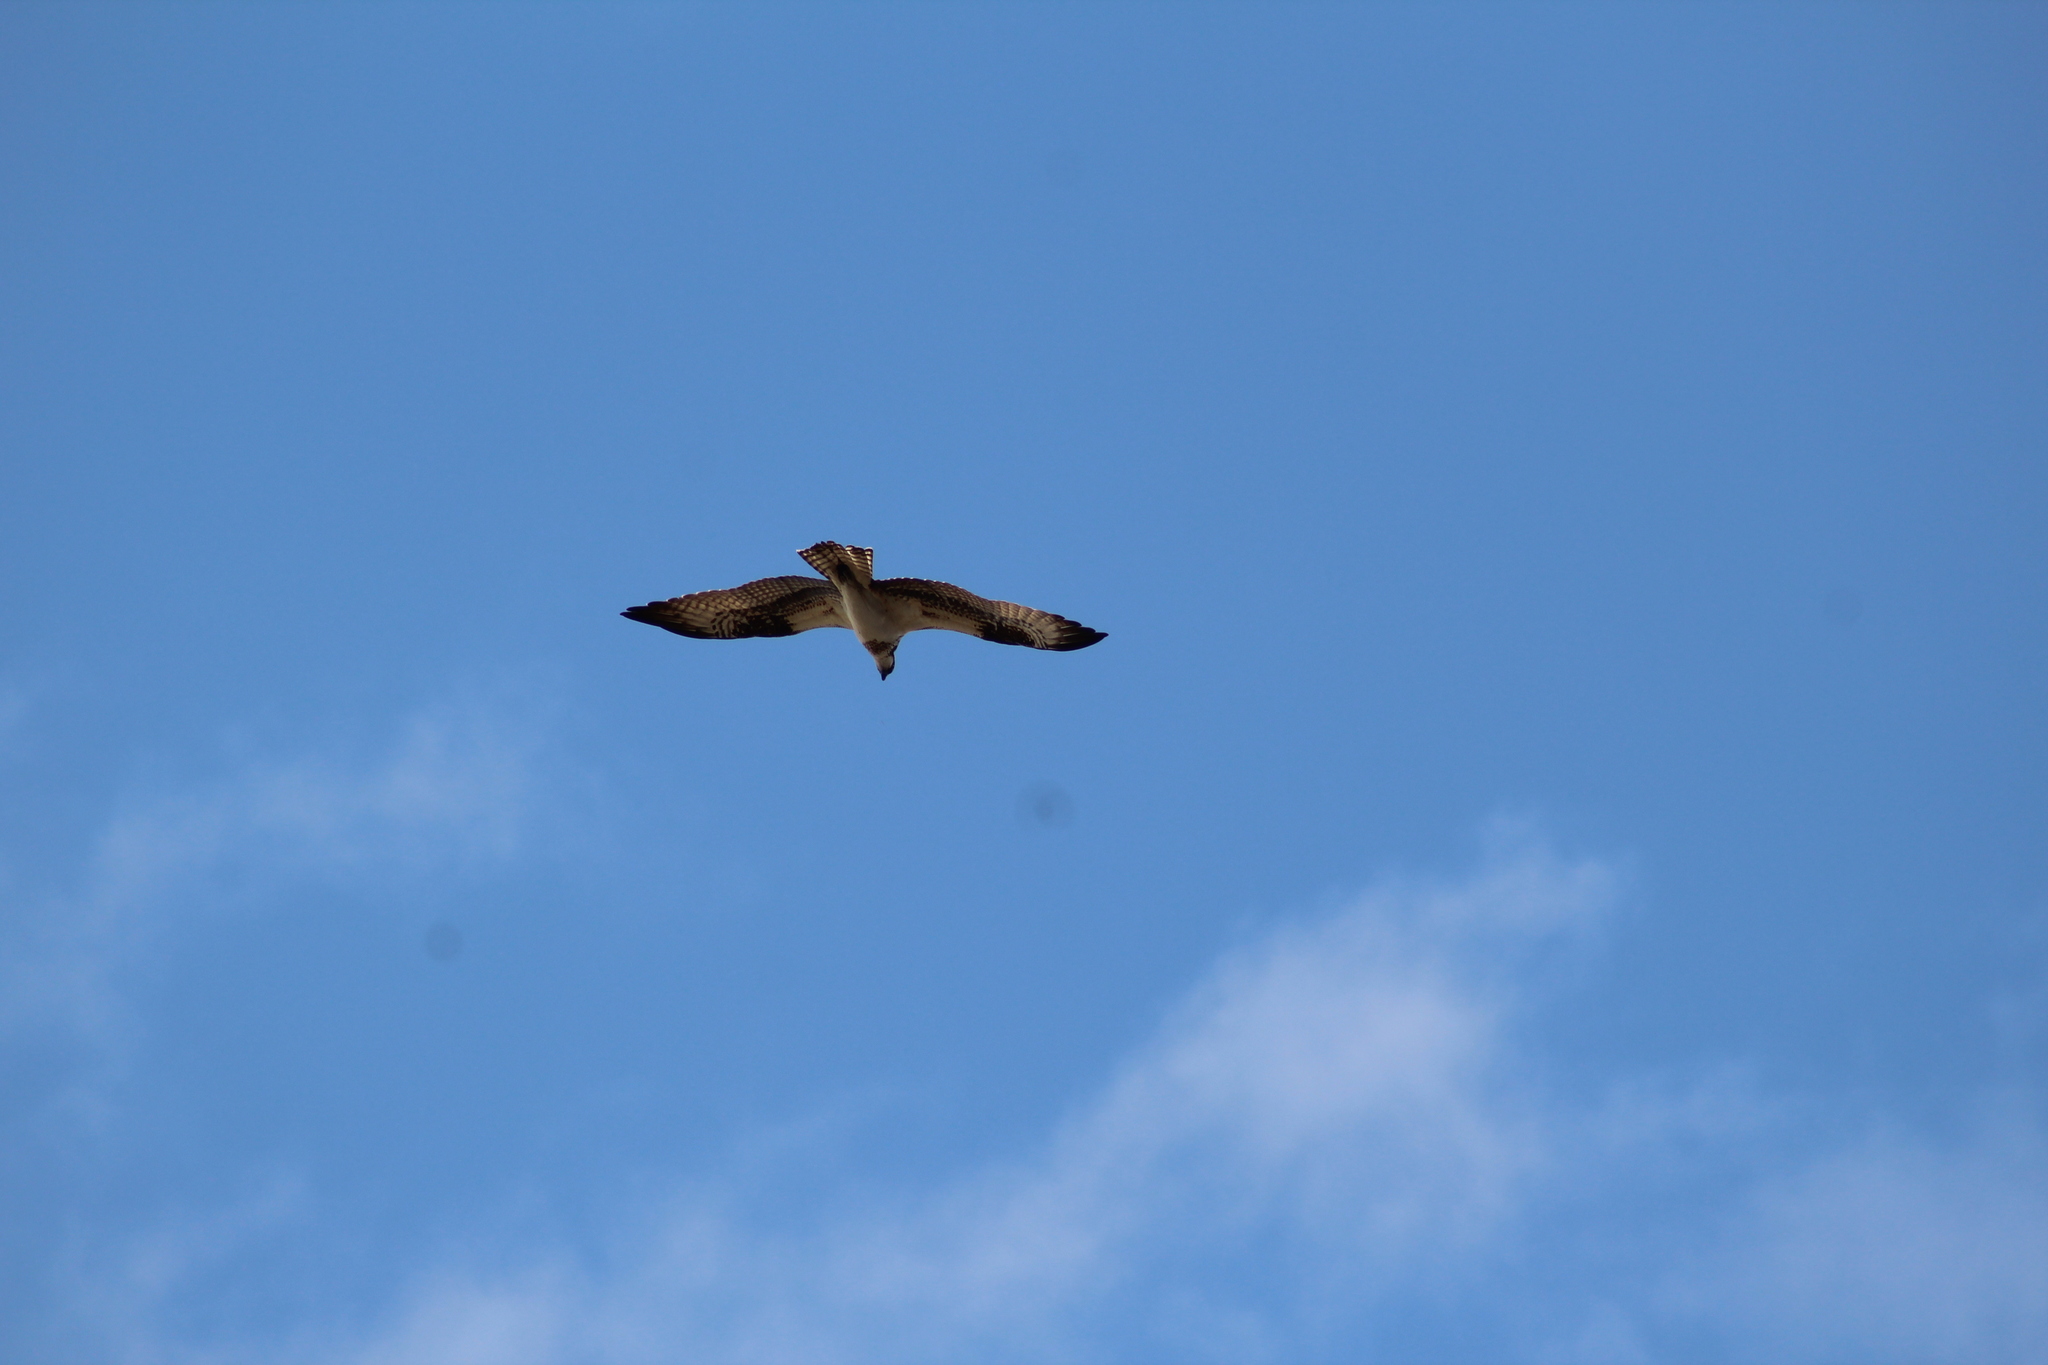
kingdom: Animalia
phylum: Chordata
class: Aves
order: Accipitriformes
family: Pandionidae
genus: Pandion
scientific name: Pandion haliaetus
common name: Osprey
